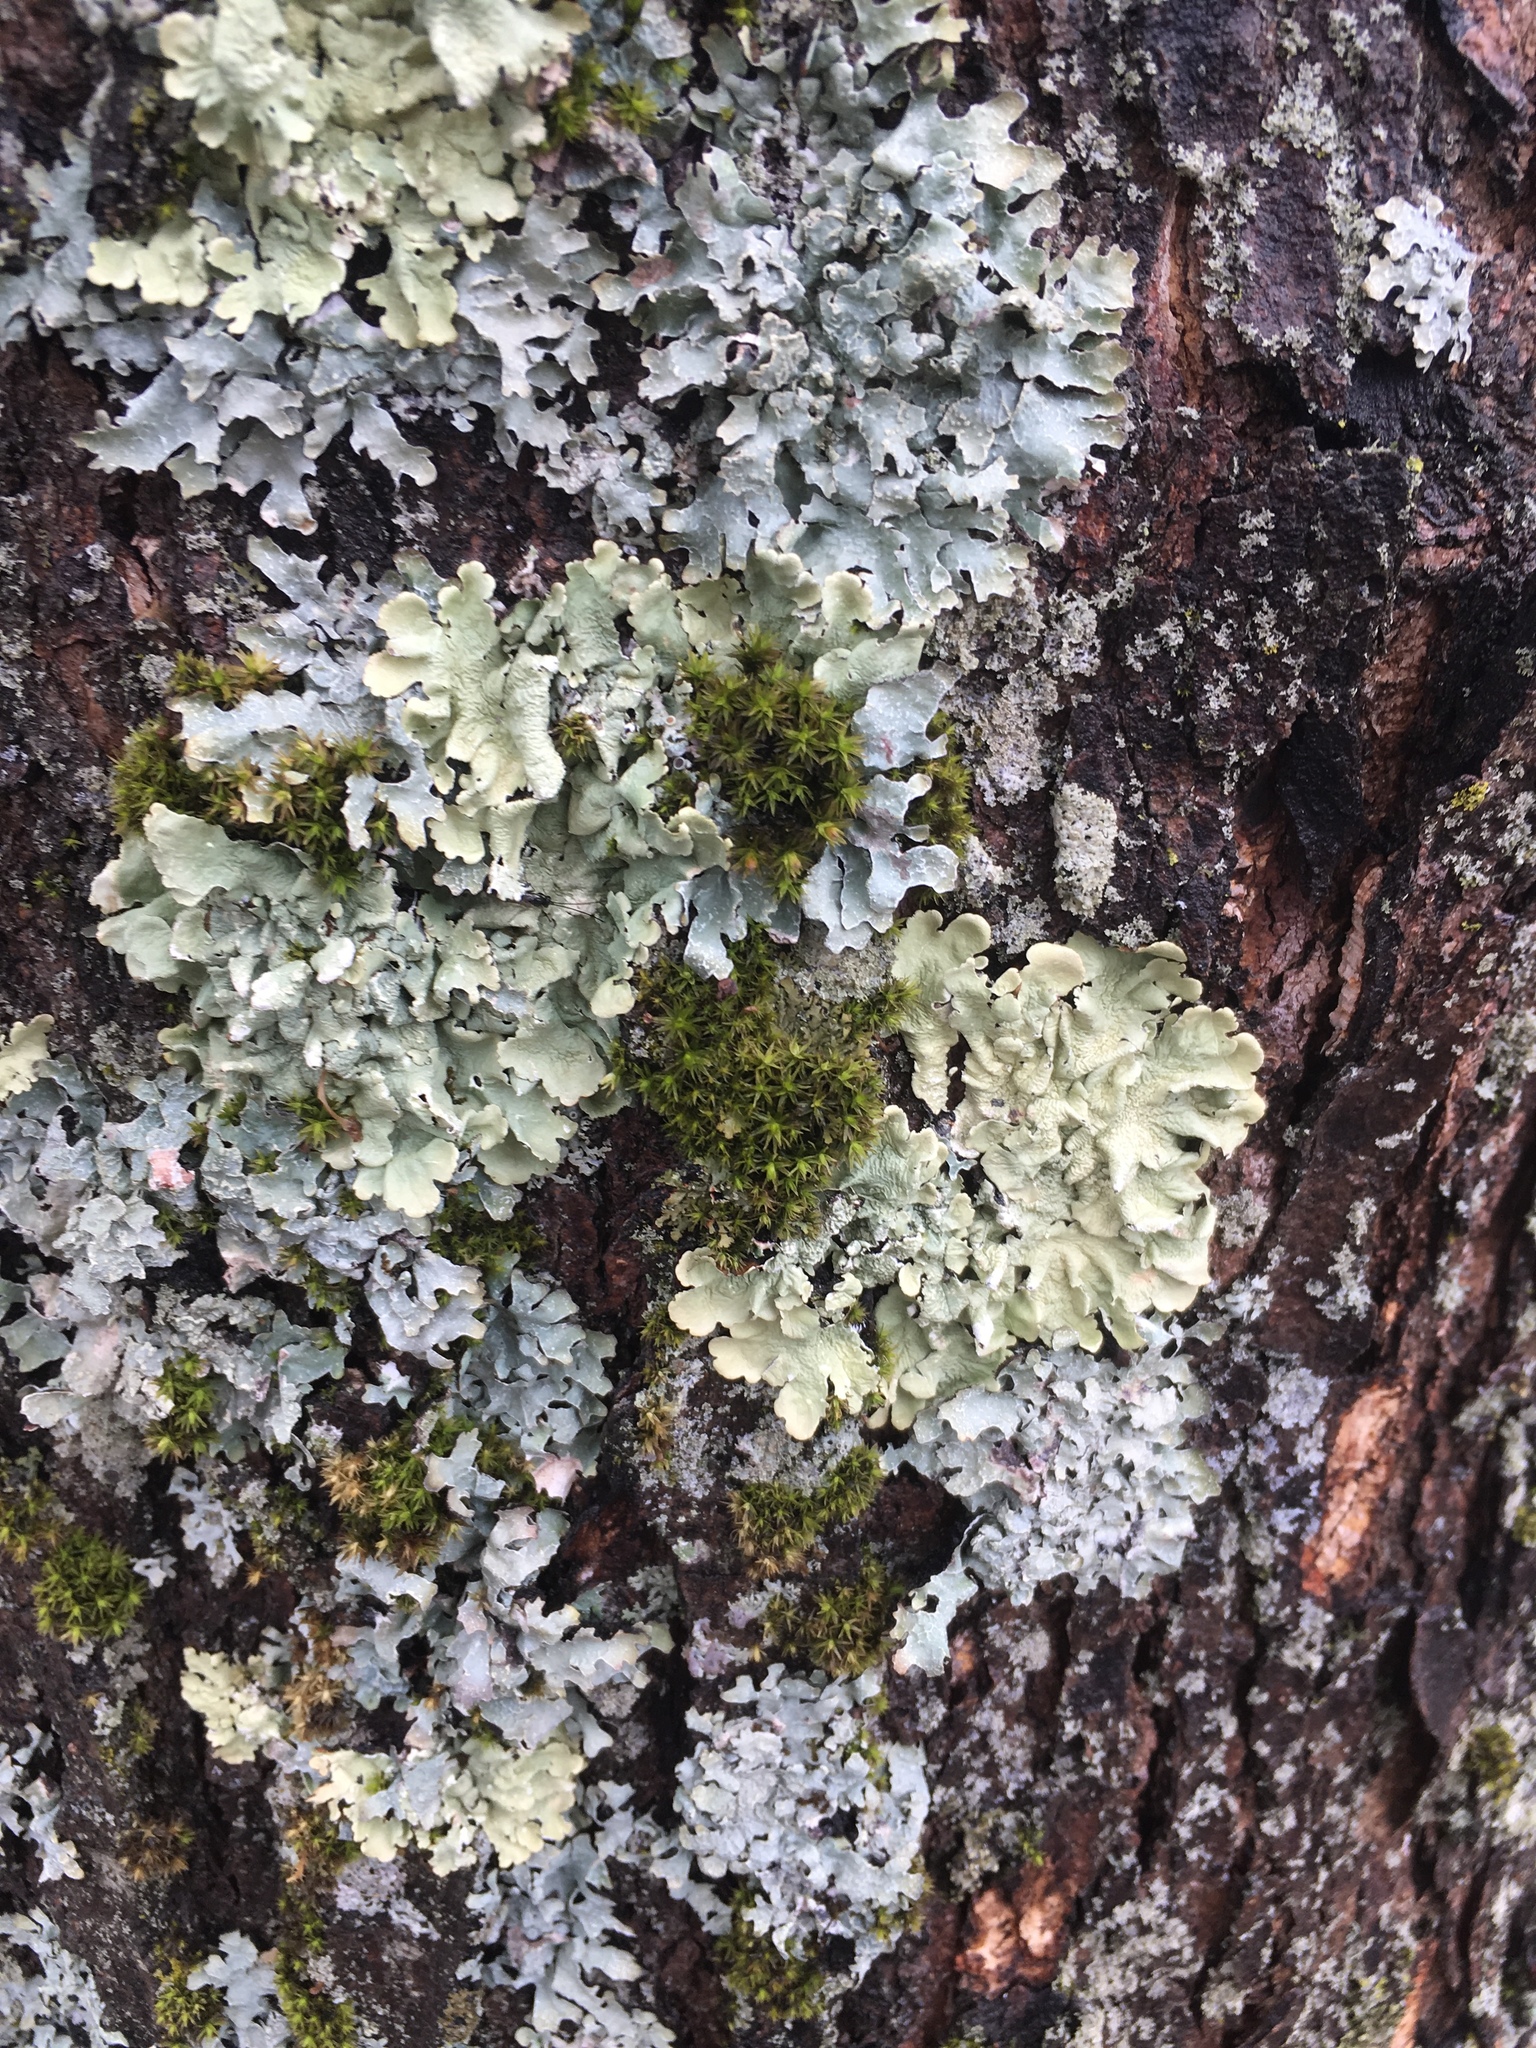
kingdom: Fungi
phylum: Ascomycota
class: Lecanoromycetes
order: Lecanorales
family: Parmeliaceae
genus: Flavoparmelia
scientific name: Flavoparmelia caperata
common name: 40-mile per hour lichen
